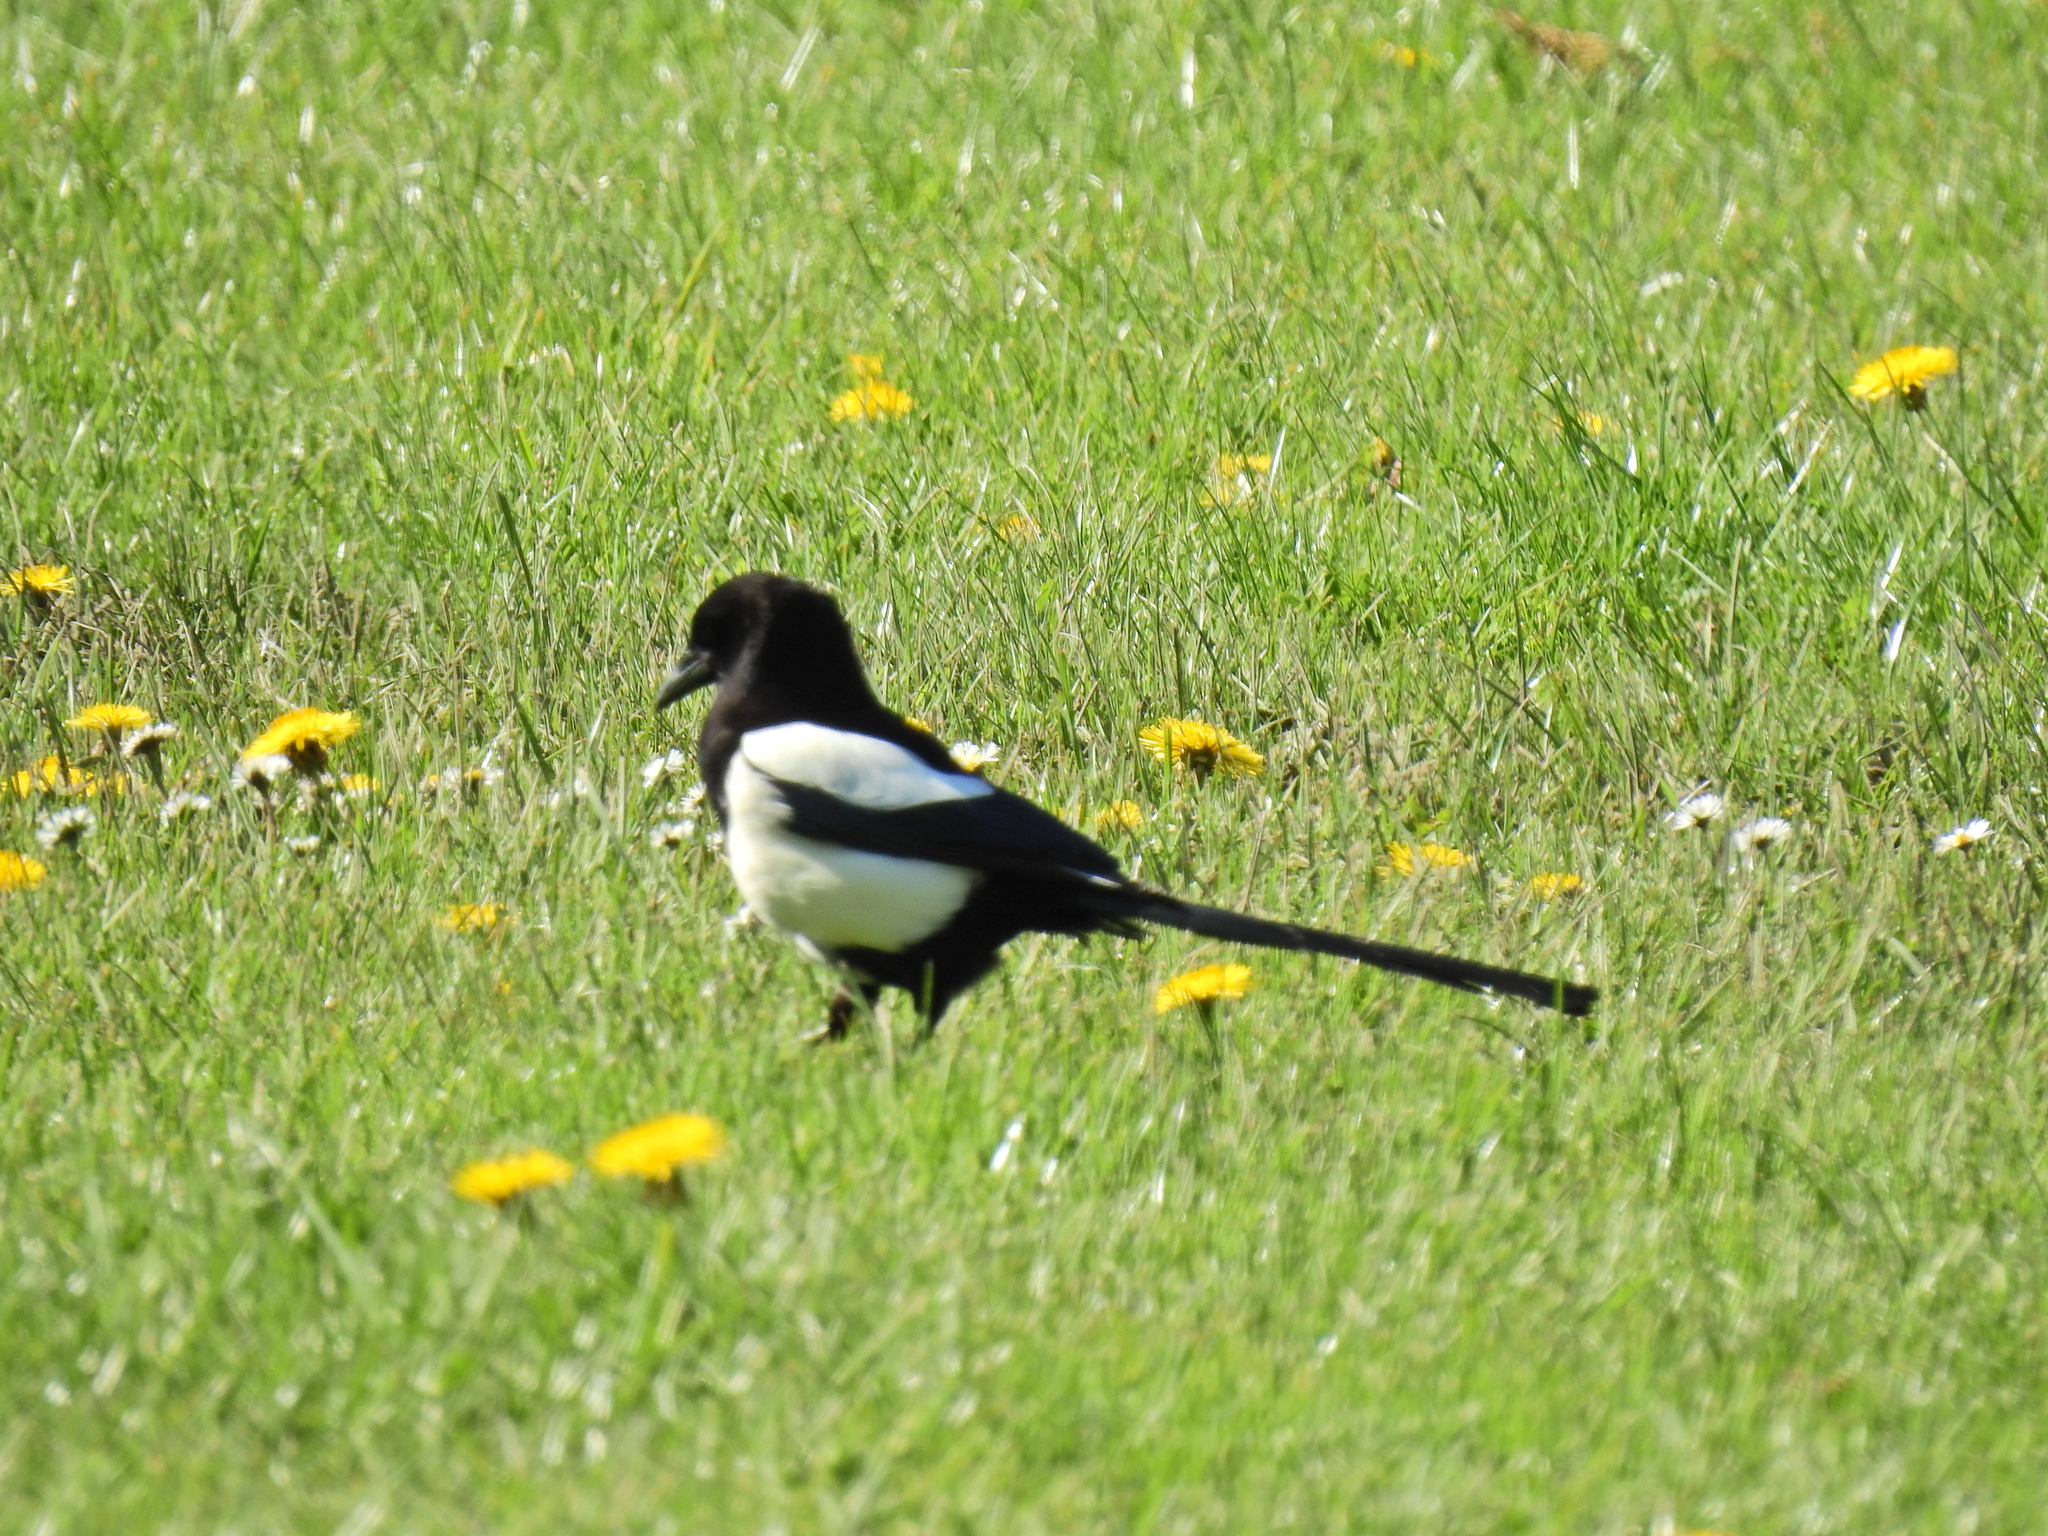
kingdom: Animalia
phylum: Chordata
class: Aves
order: Passeriformes
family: Corvidae
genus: Pica
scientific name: Pica pica
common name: Eurasian magpie
